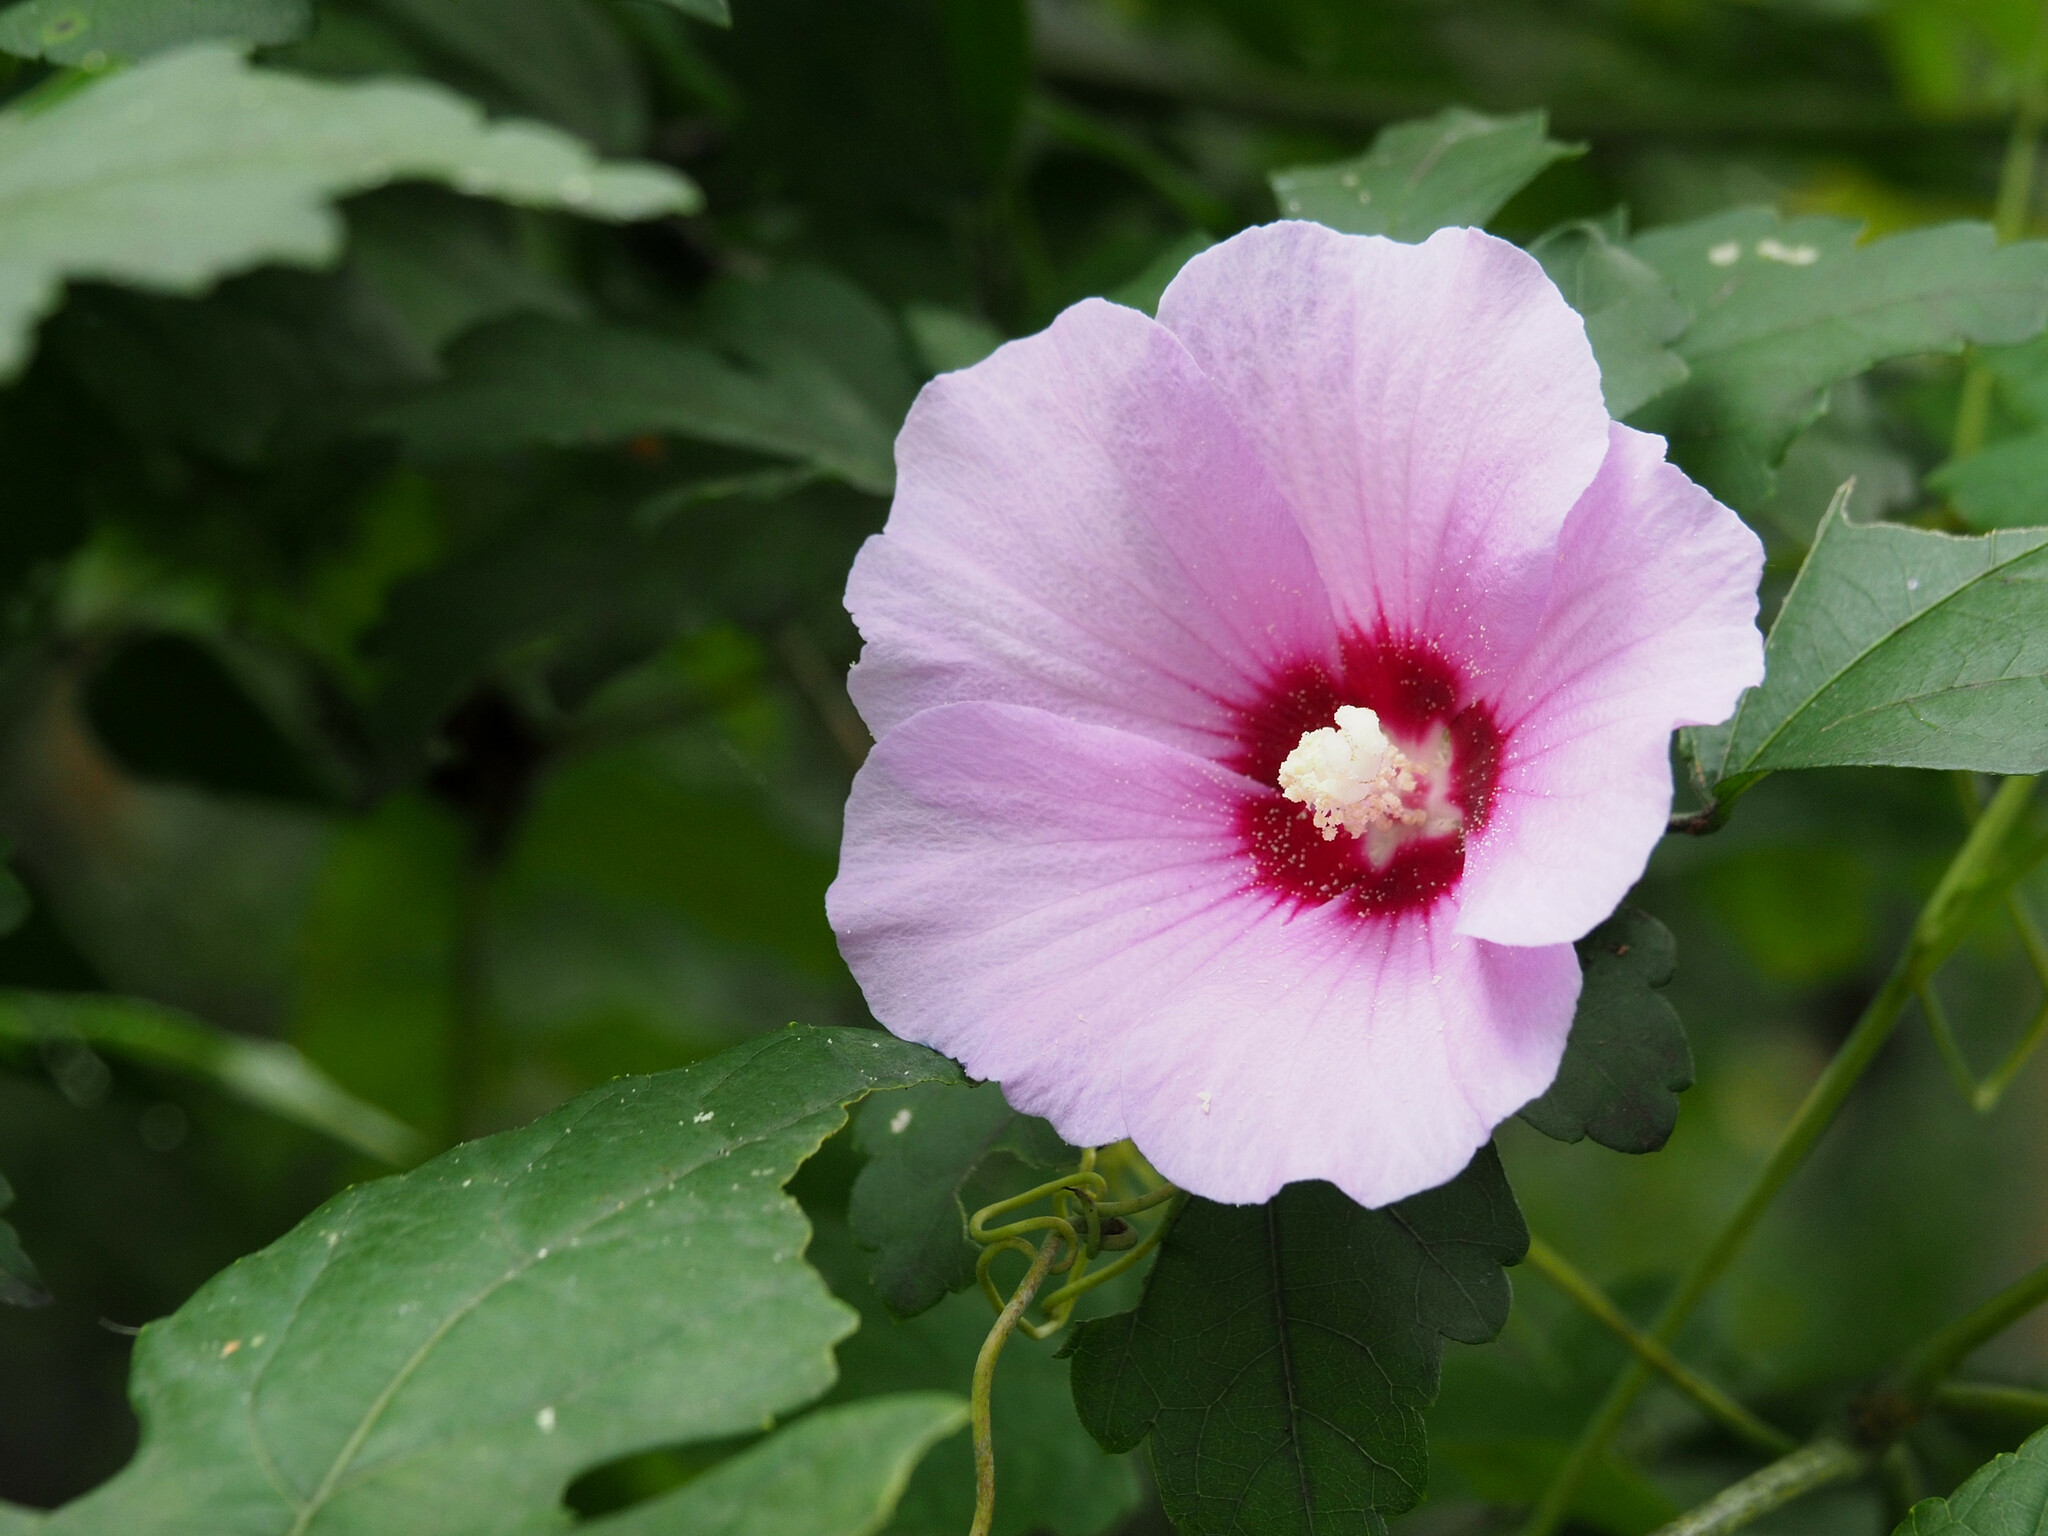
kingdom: Plantae
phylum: Tracheophyta
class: Magnoliopsida
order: Malvales
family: Malvaceae
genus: Hibiscus
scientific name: Hibiscus syriacus
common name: Syrian ketmia
